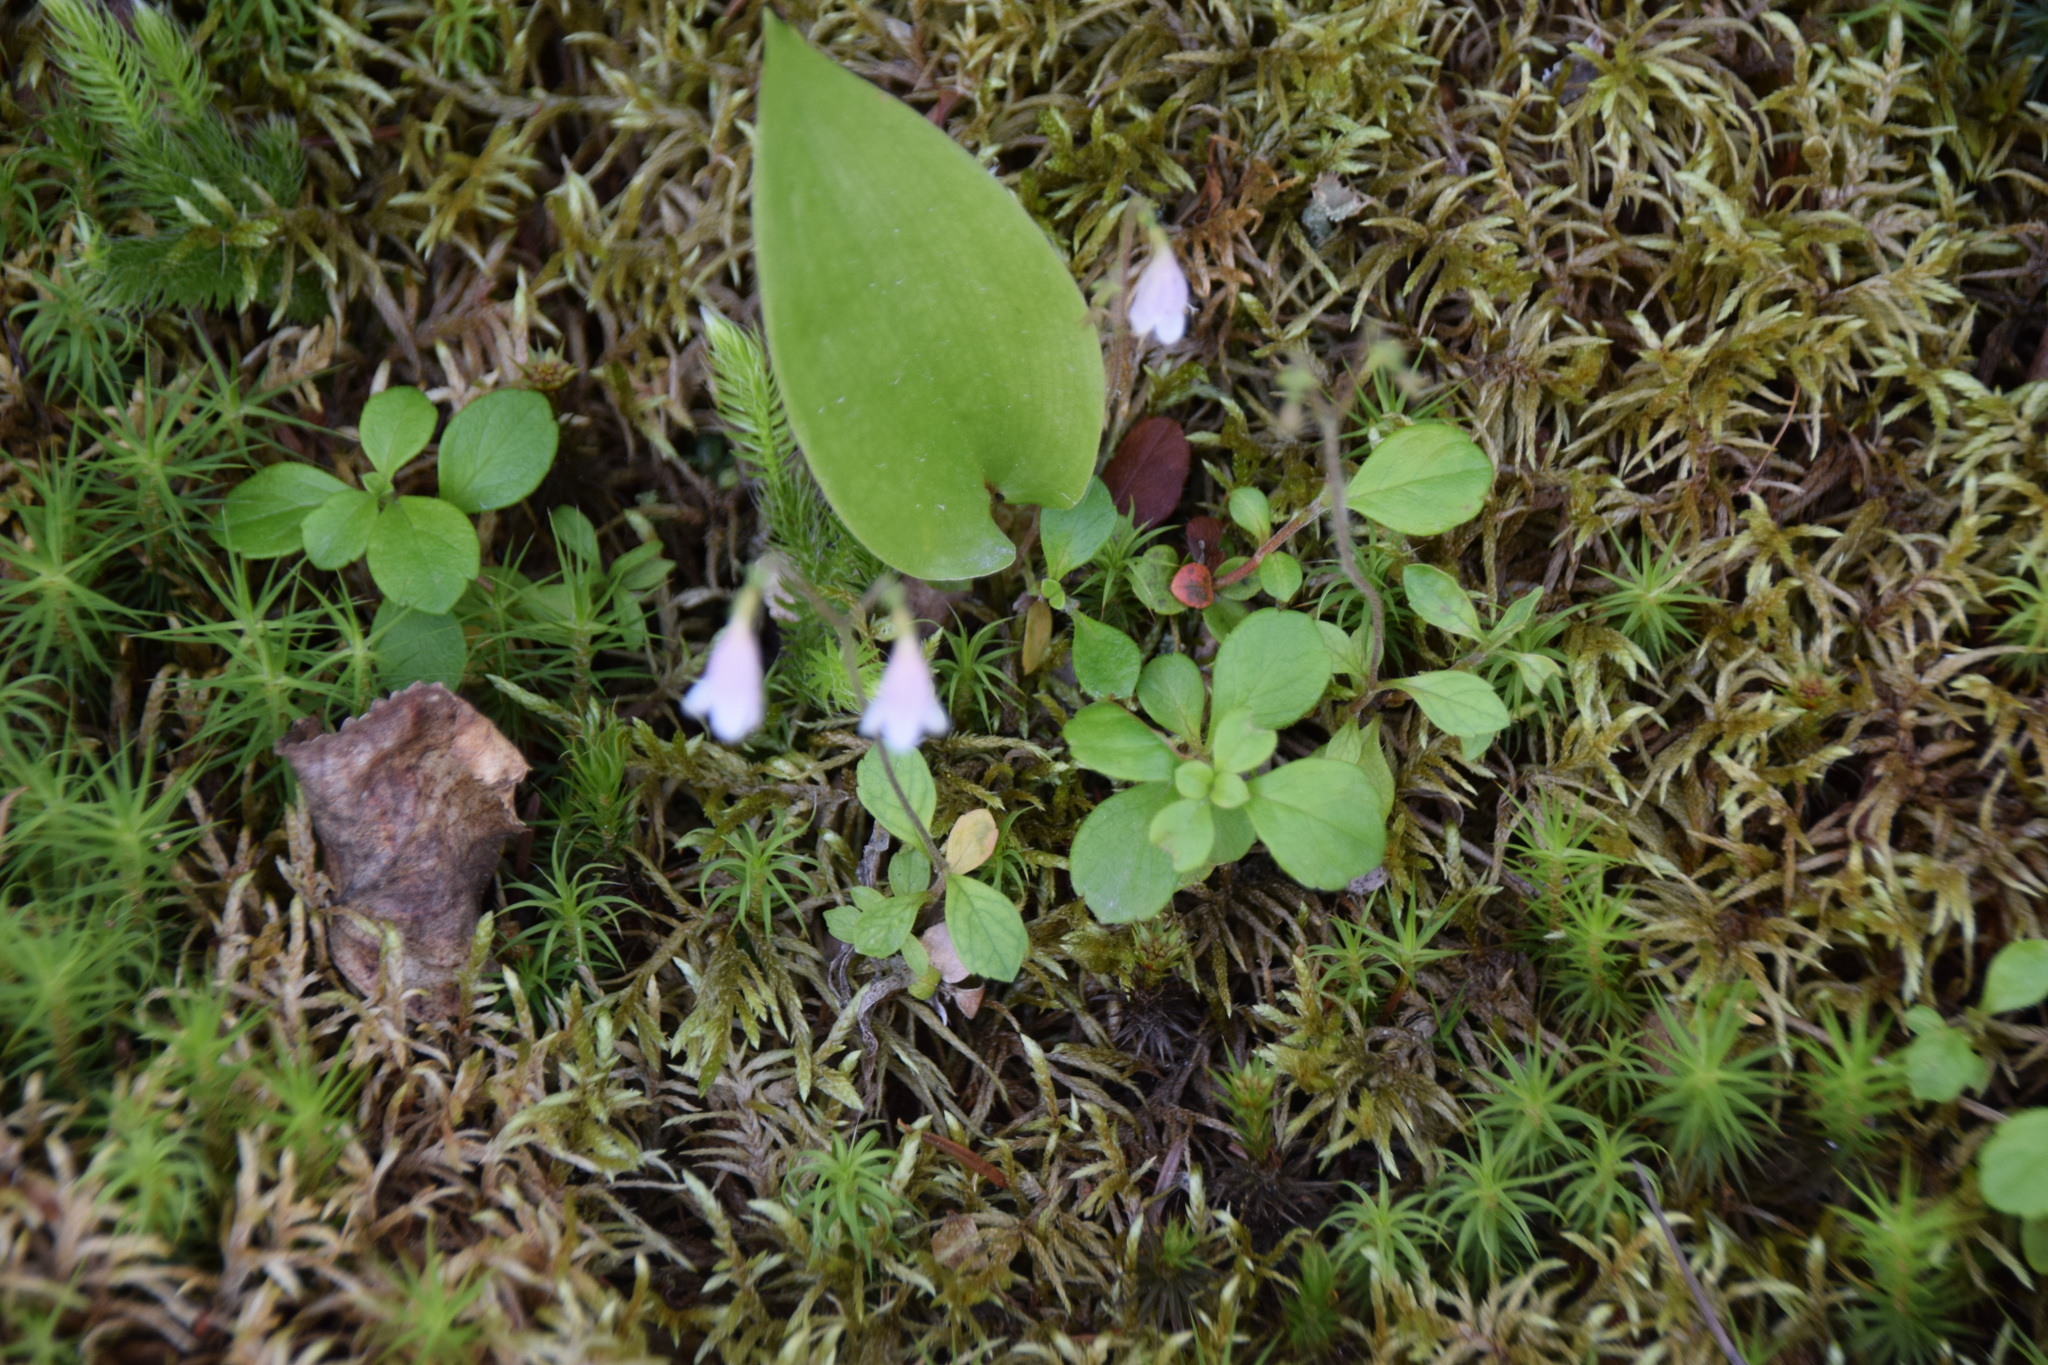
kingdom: Plantae
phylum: Tracheophyta
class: Magnoliopsida
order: Dipsacales
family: Caprifoliaceae
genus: Linnaea
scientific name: Linnaea borealis
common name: Twinflower
